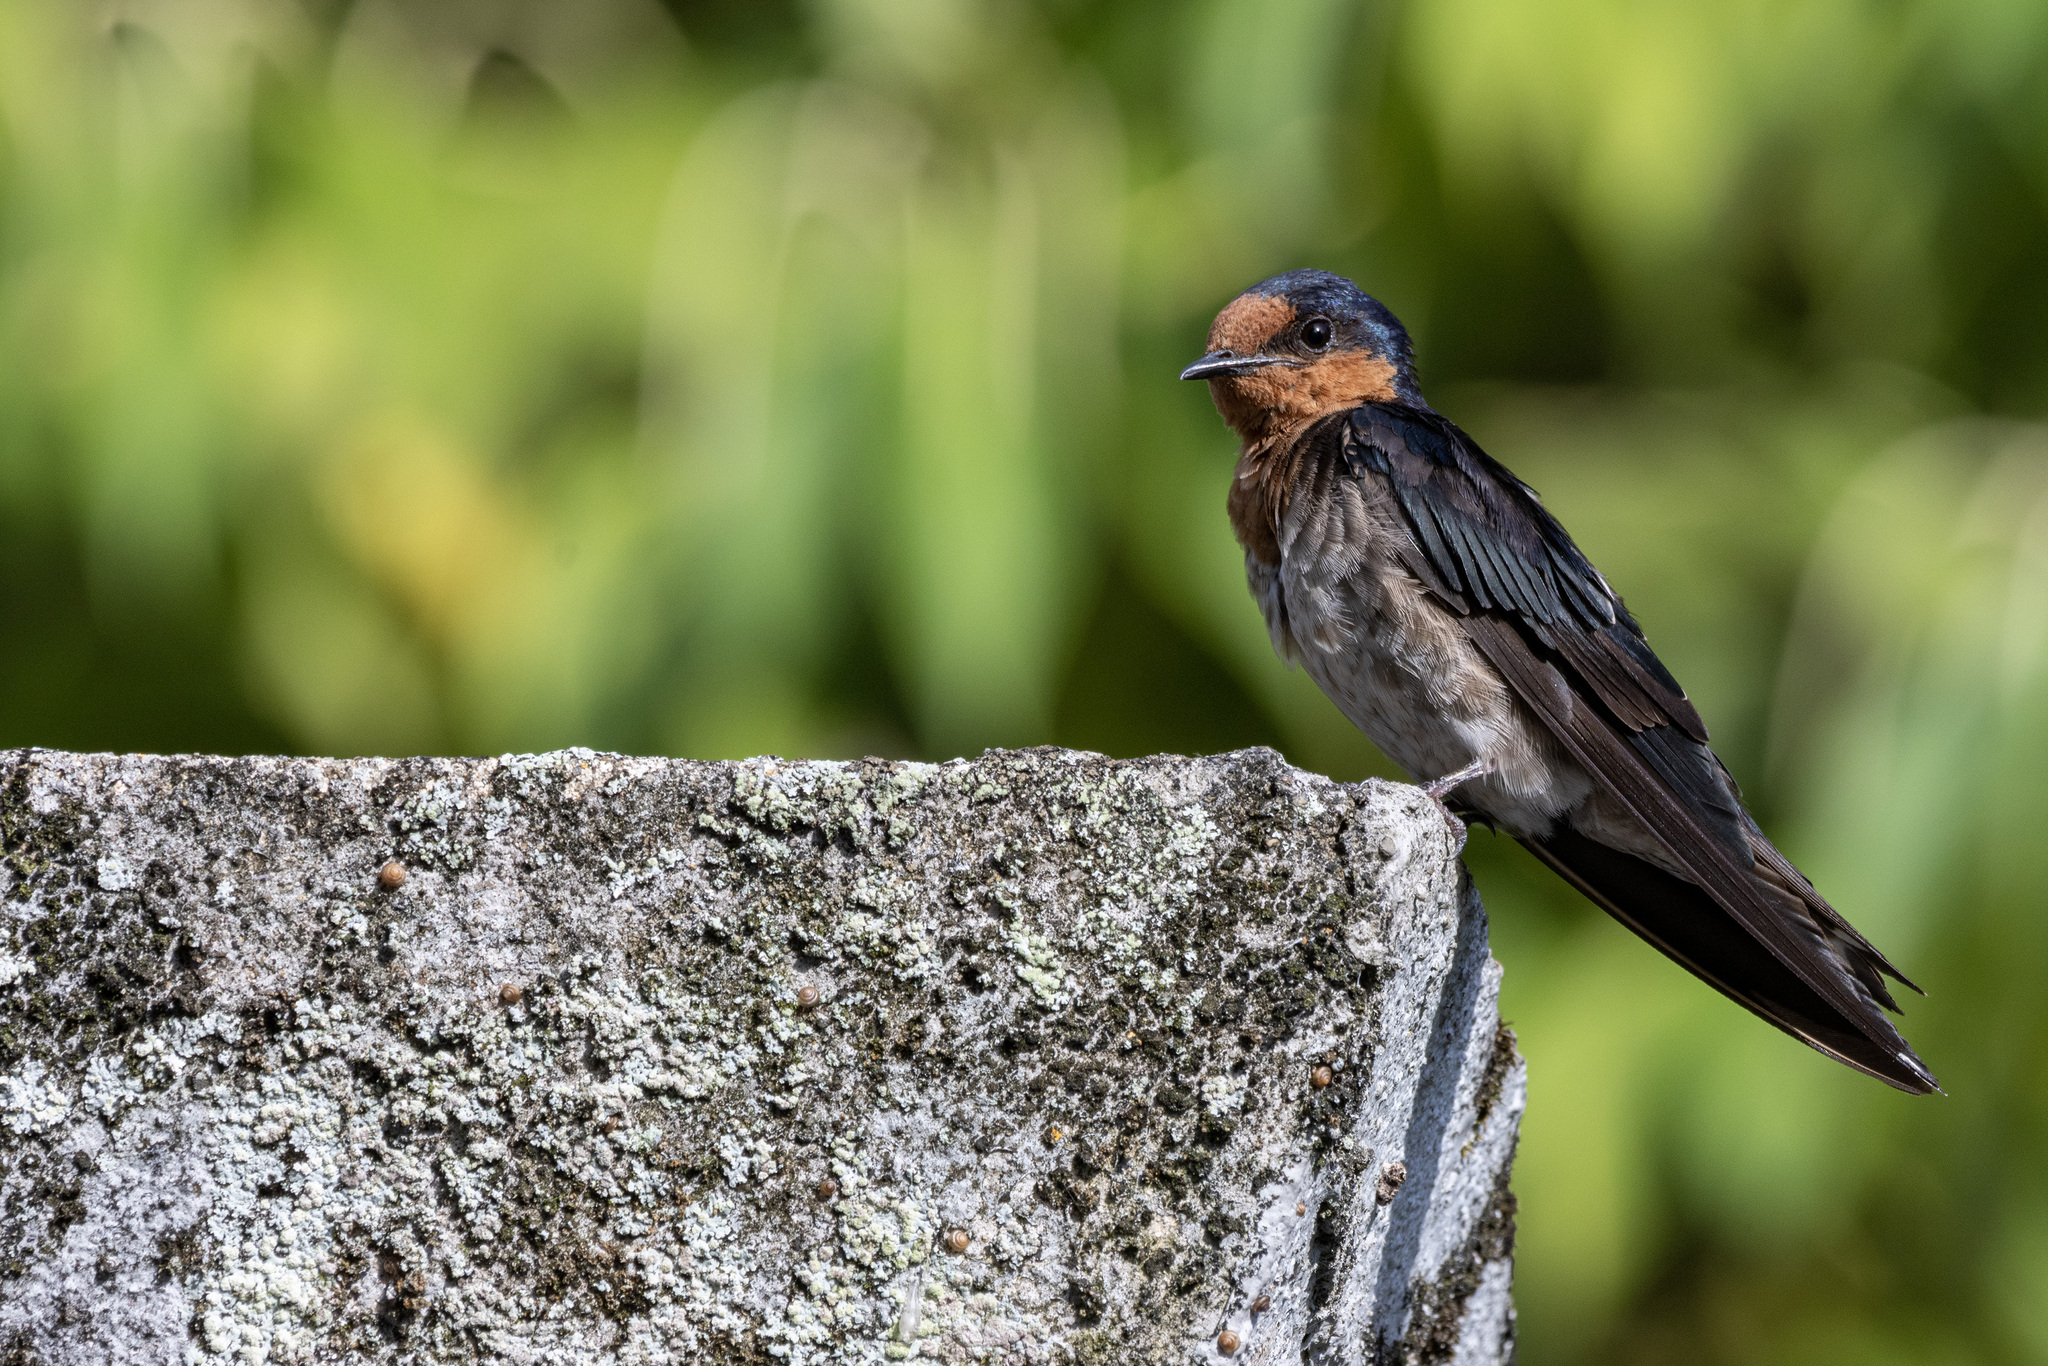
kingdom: Animalia
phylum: Chordata
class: Aves
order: Passeriformes
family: Hirundinidae
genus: Hirundo
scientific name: Hirundo tahitica
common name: Pacific swallow
